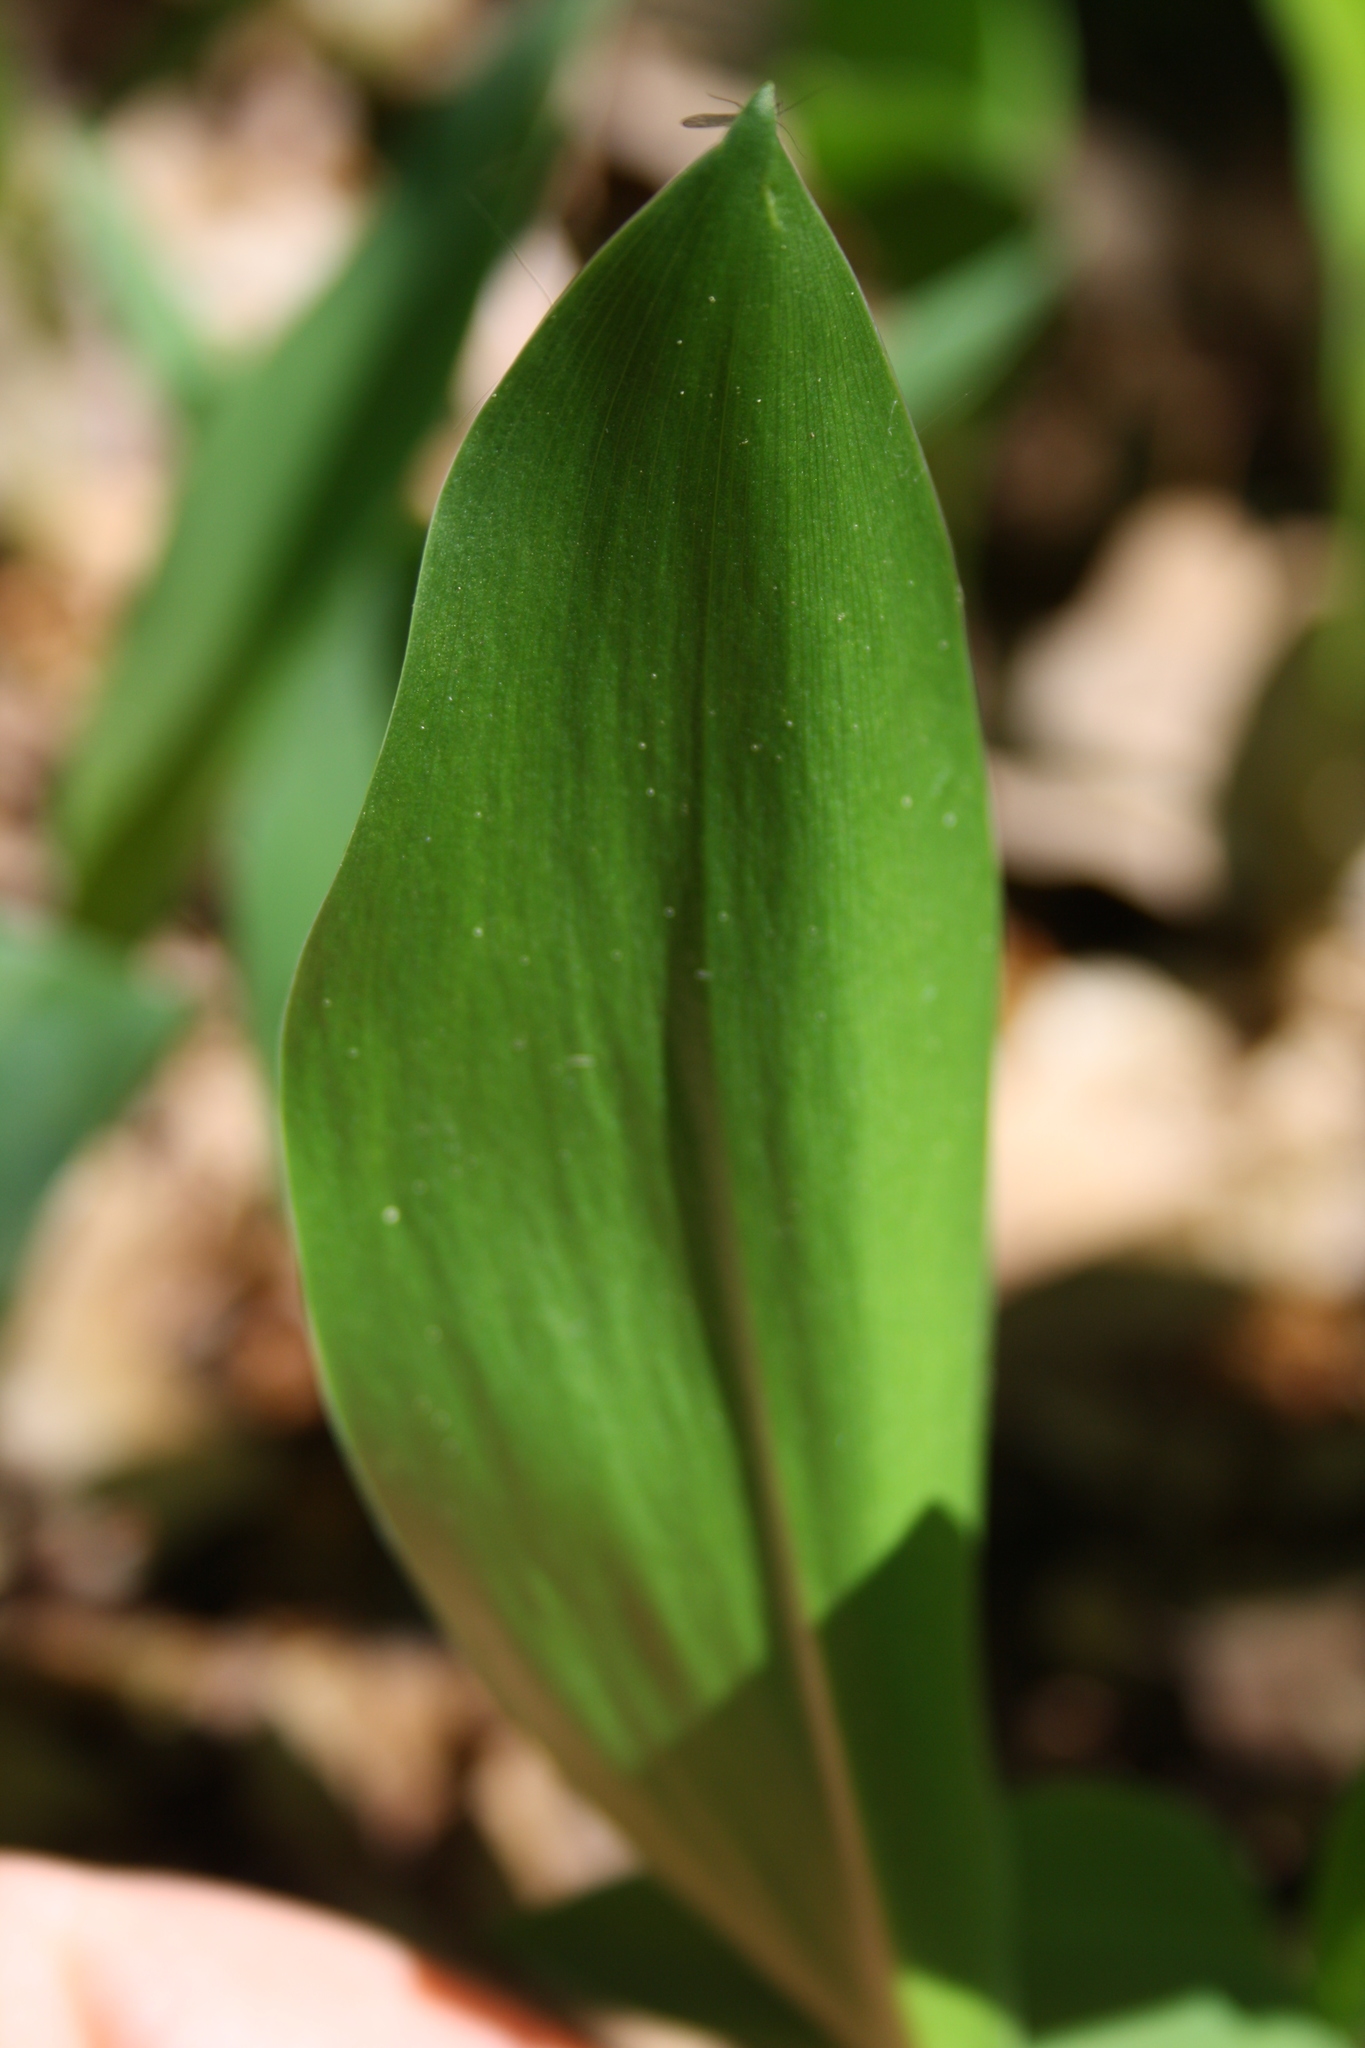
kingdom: Plantae
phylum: Tracheophyta
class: Liliopsida
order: Asparagales
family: Asparagaceae
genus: Convallaria
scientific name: Convallaria majalis
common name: Lily-of-the-valley
